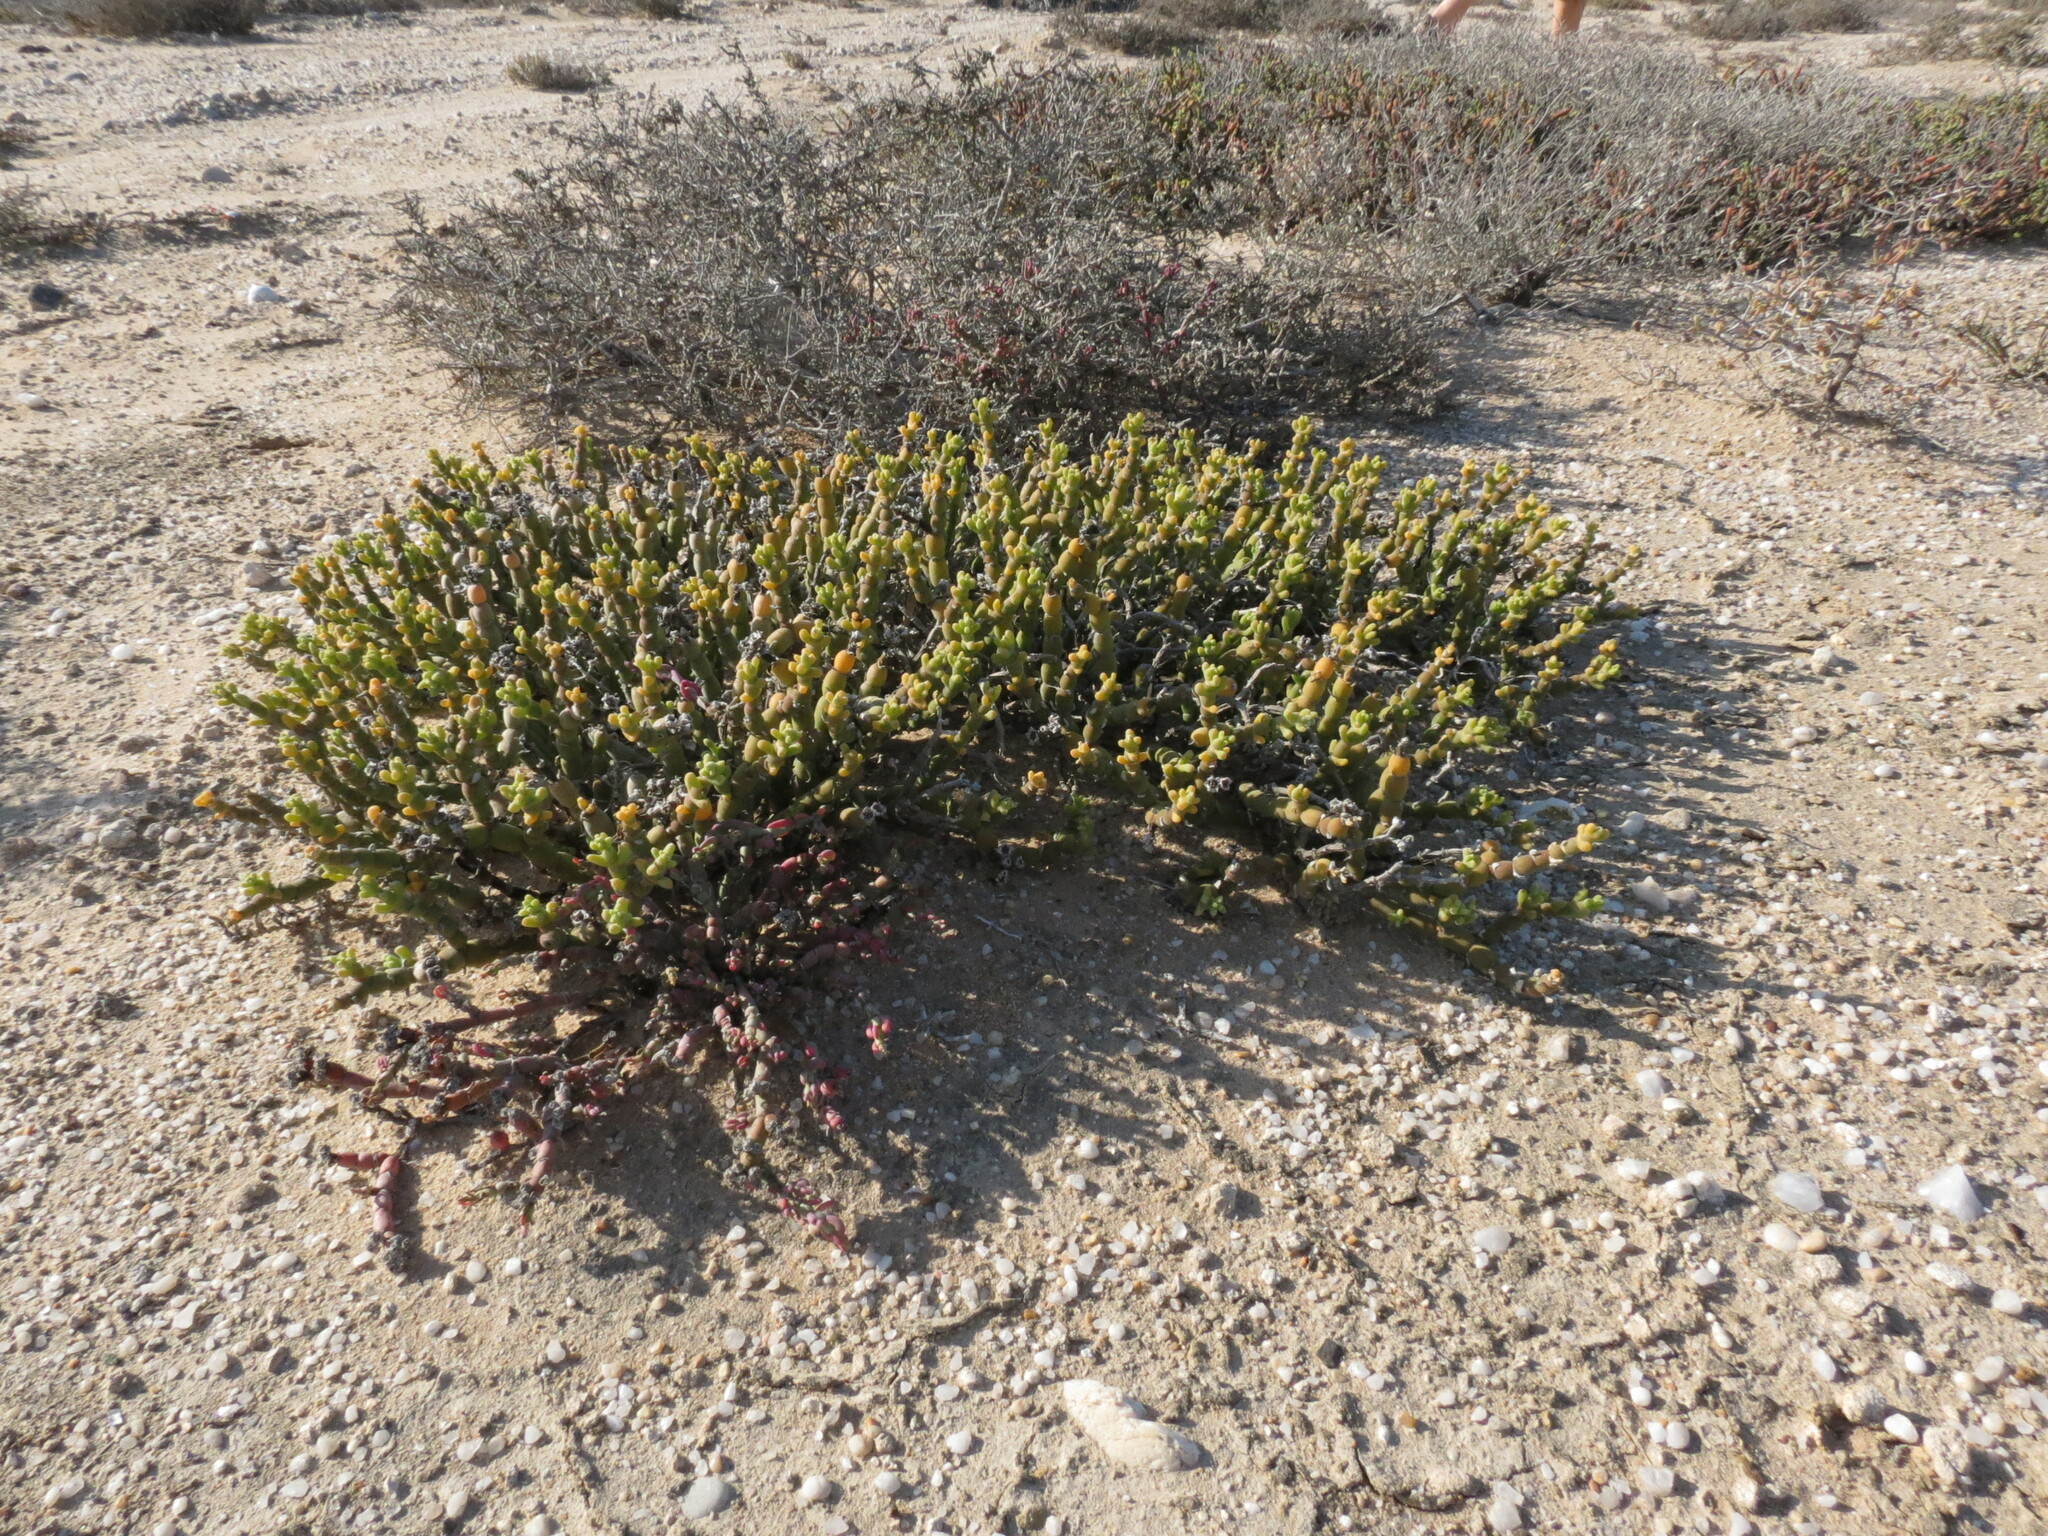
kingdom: Plantae
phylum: Tracheophyta
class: Magnoliopsida
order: Caryophyllales
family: Aizoaceae
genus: Mesembryanthemum
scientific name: Mesembryanthemum dinteri
